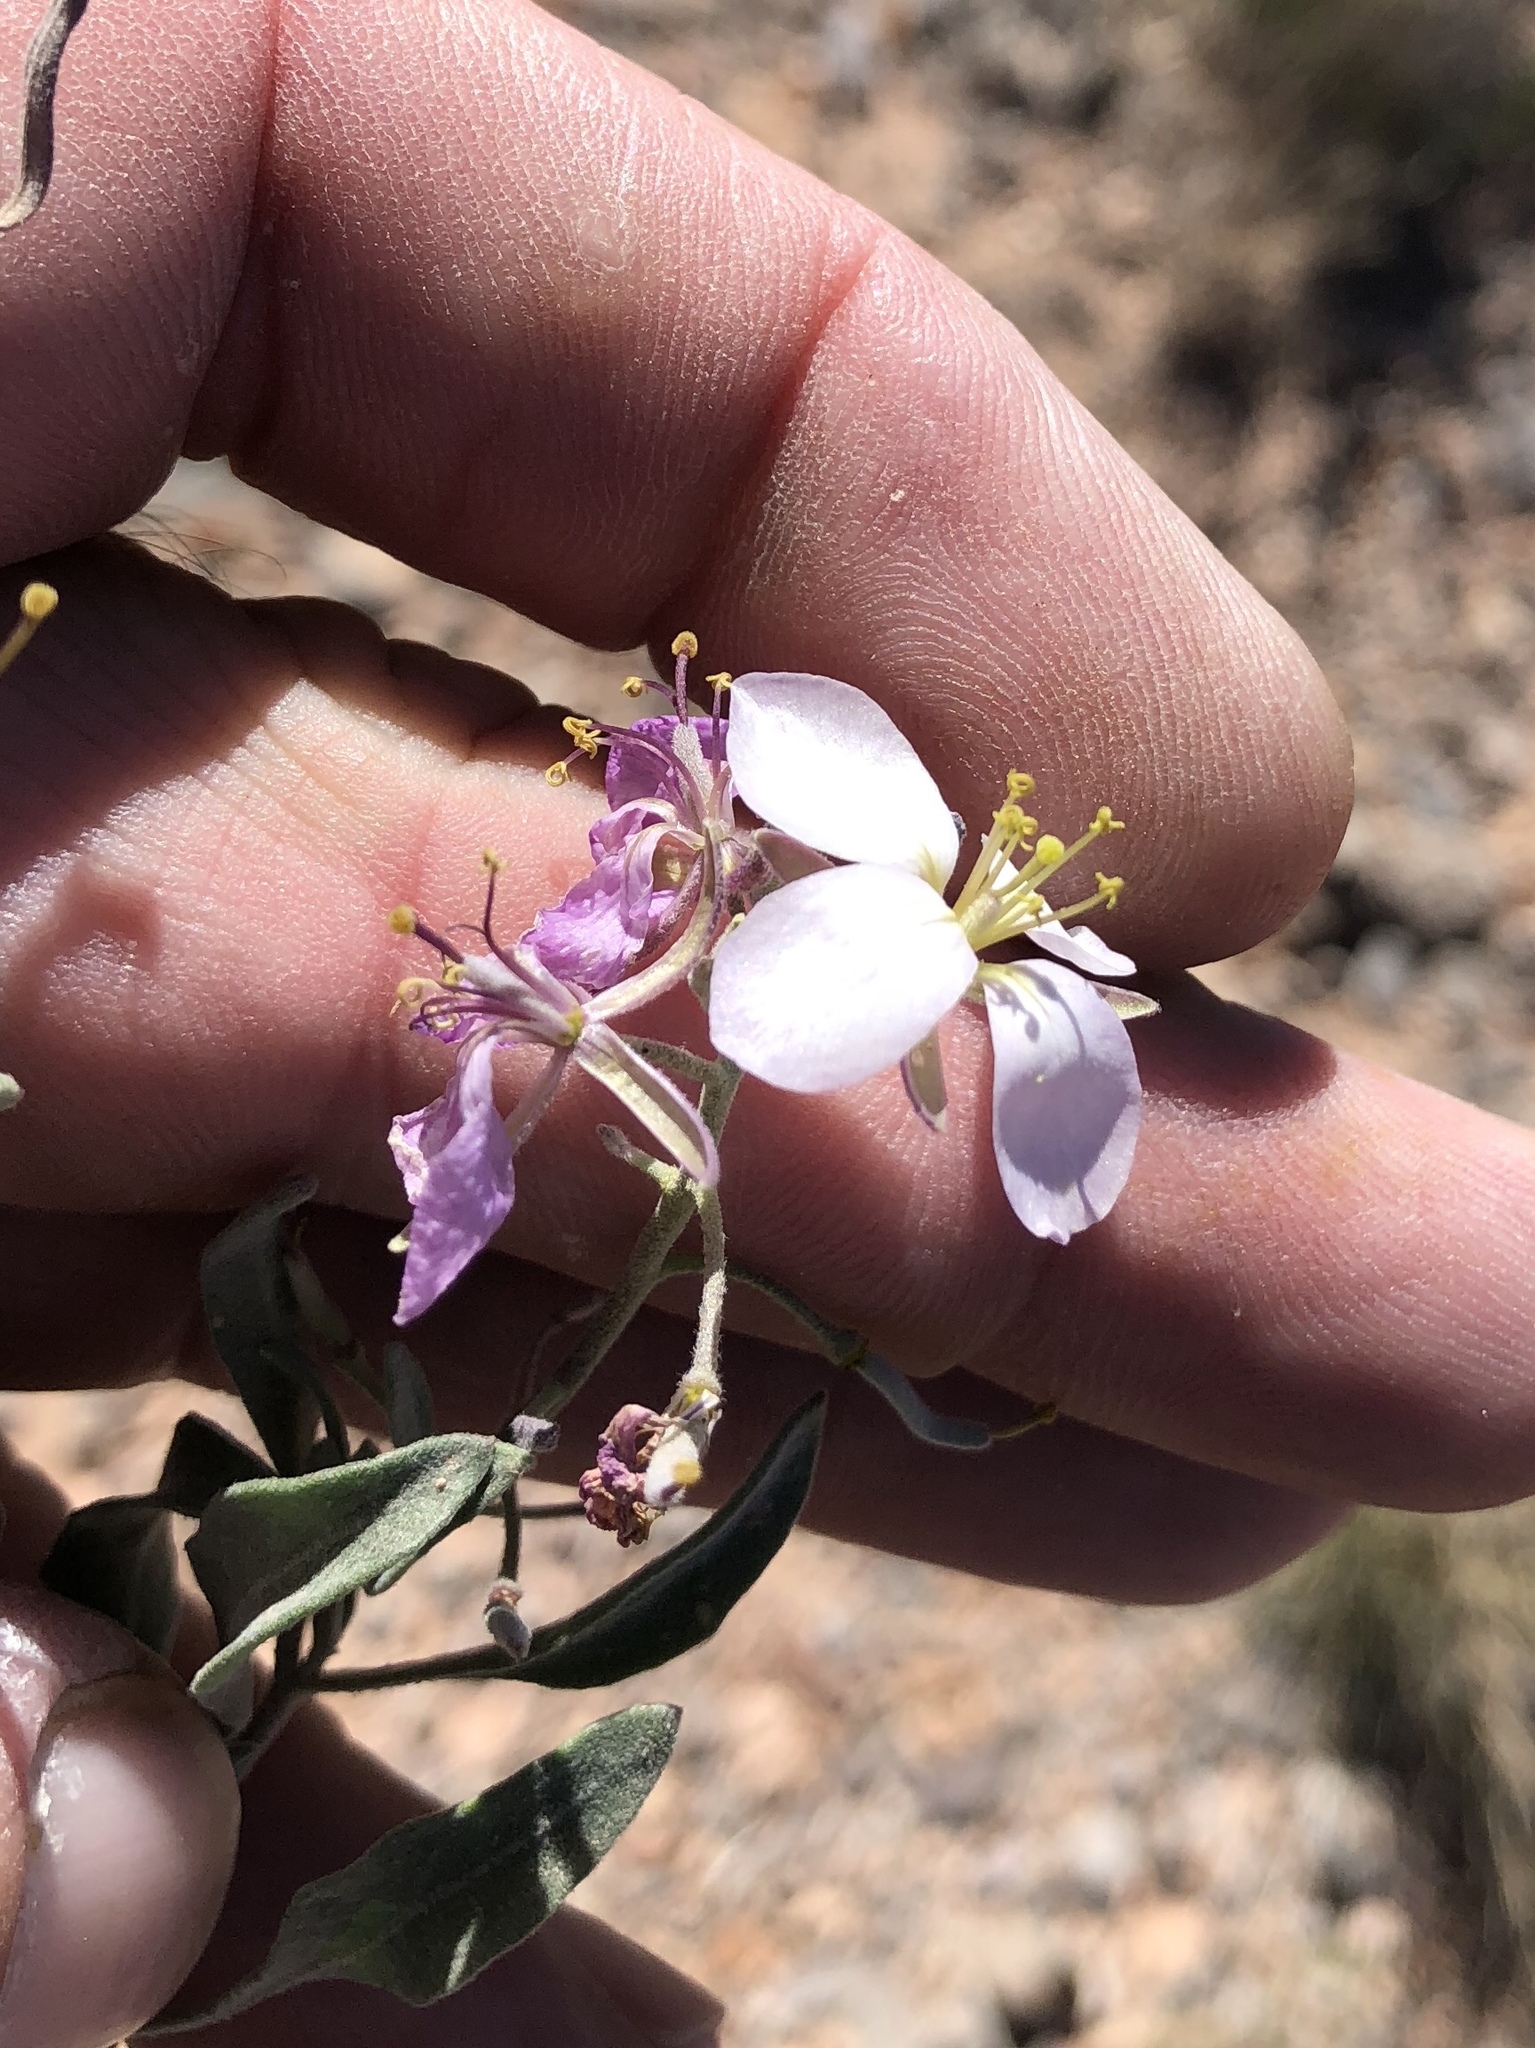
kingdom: Plantae
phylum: Tracheophyta
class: Magnoliopsida
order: Brassicales
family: Brassicaceae
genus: Nerisyrenia
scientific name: Nerisyrenia camporum
